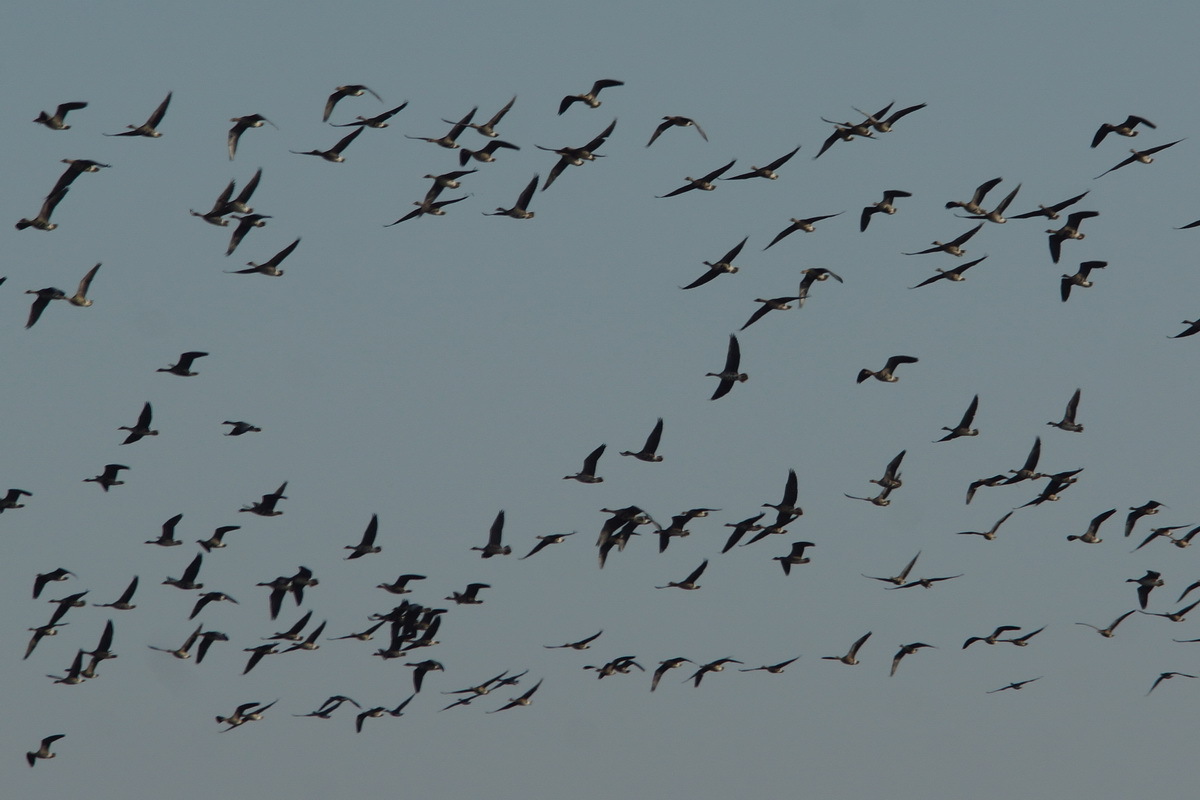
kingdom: Animalia
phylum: Chordata
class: Aves
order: Anseriformes
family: Anatidae
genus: Anser
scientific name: Anser albifrons
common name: Greater white-fronted goose
